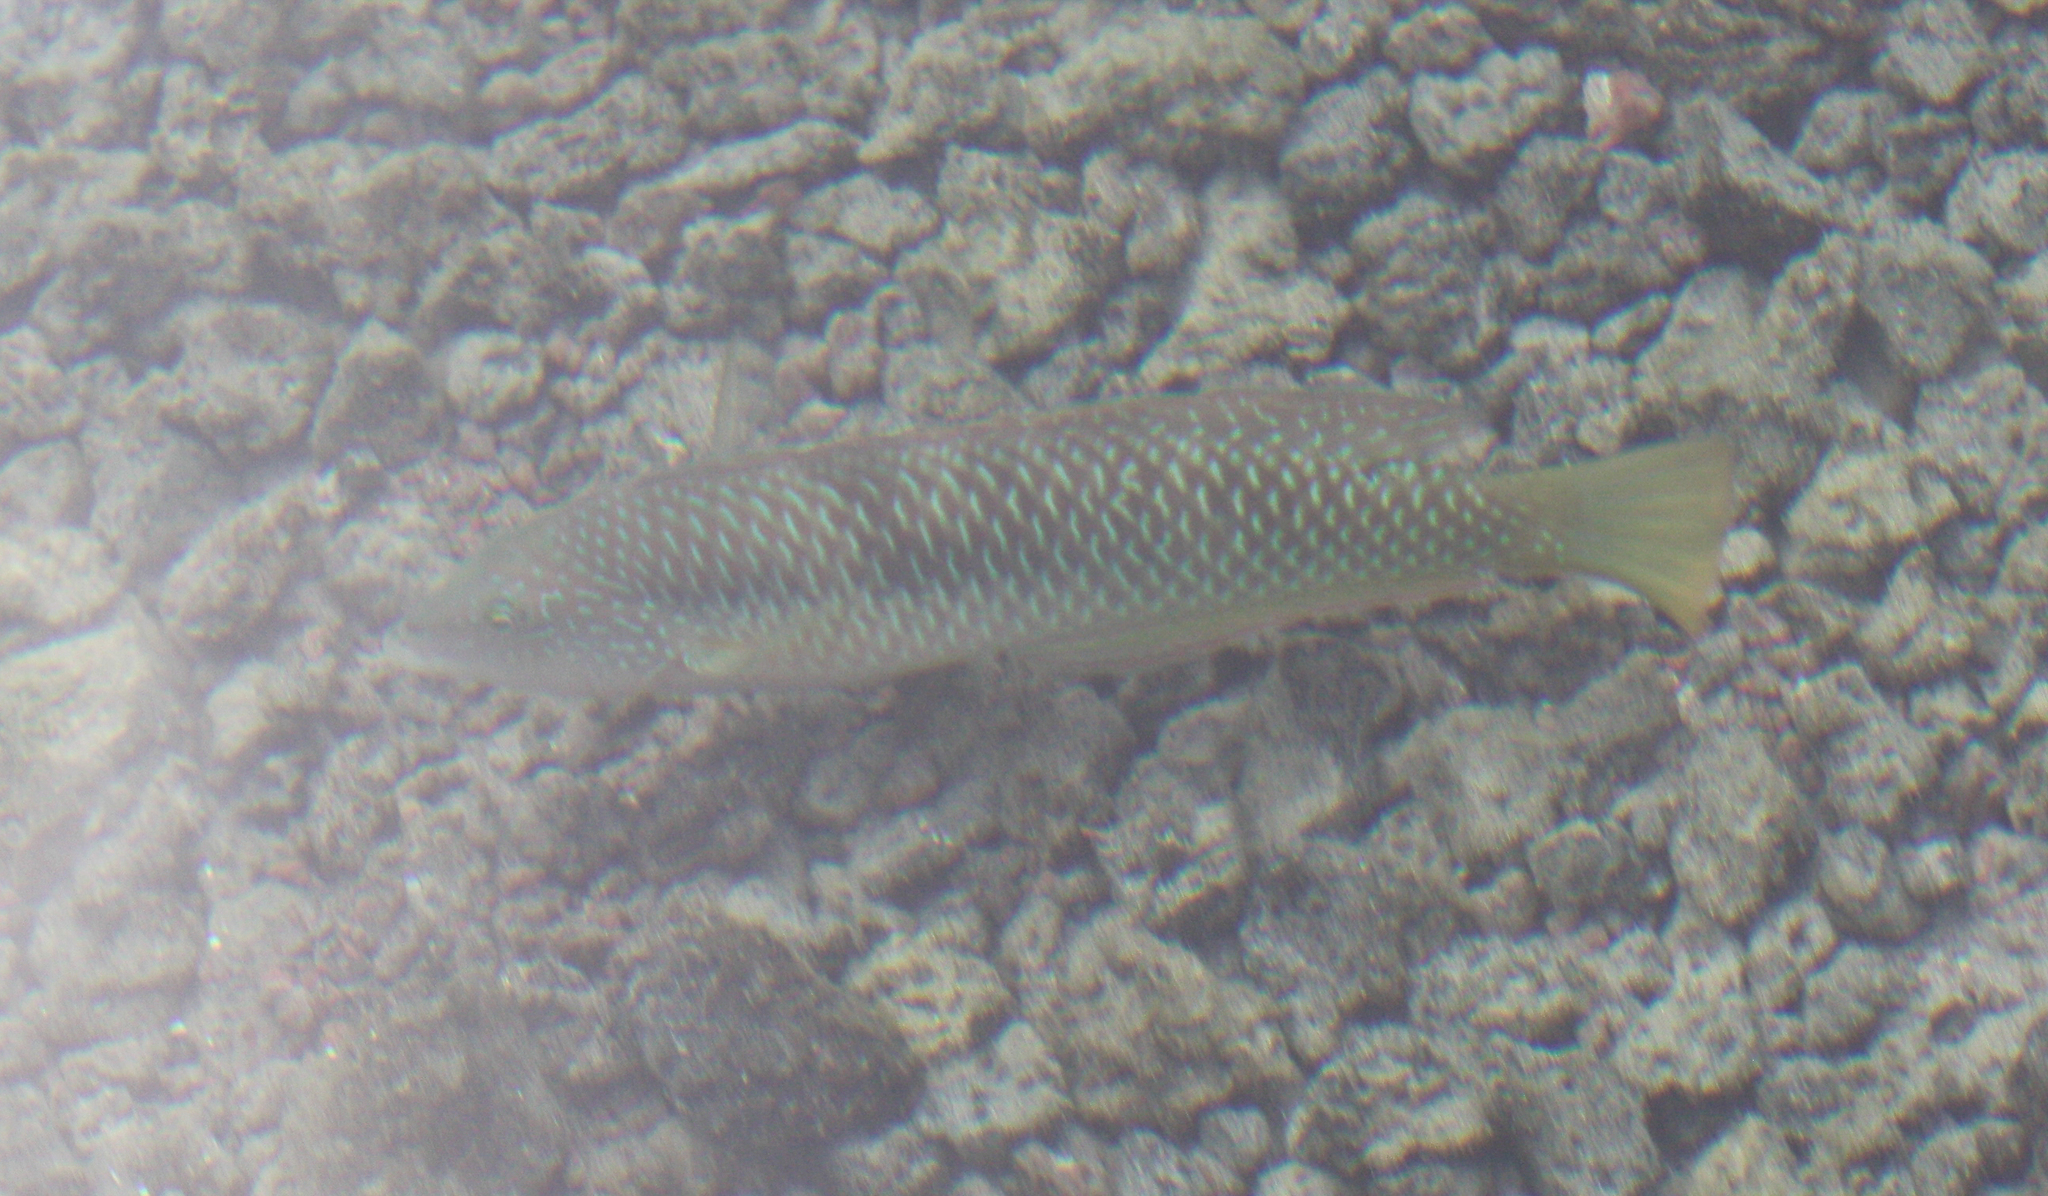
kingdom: Animalia
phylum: Chordata
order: Perciformes
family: Labridae
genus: Halichoeres
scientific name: Halichoeres nicholsi
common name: Spinster wrasse
